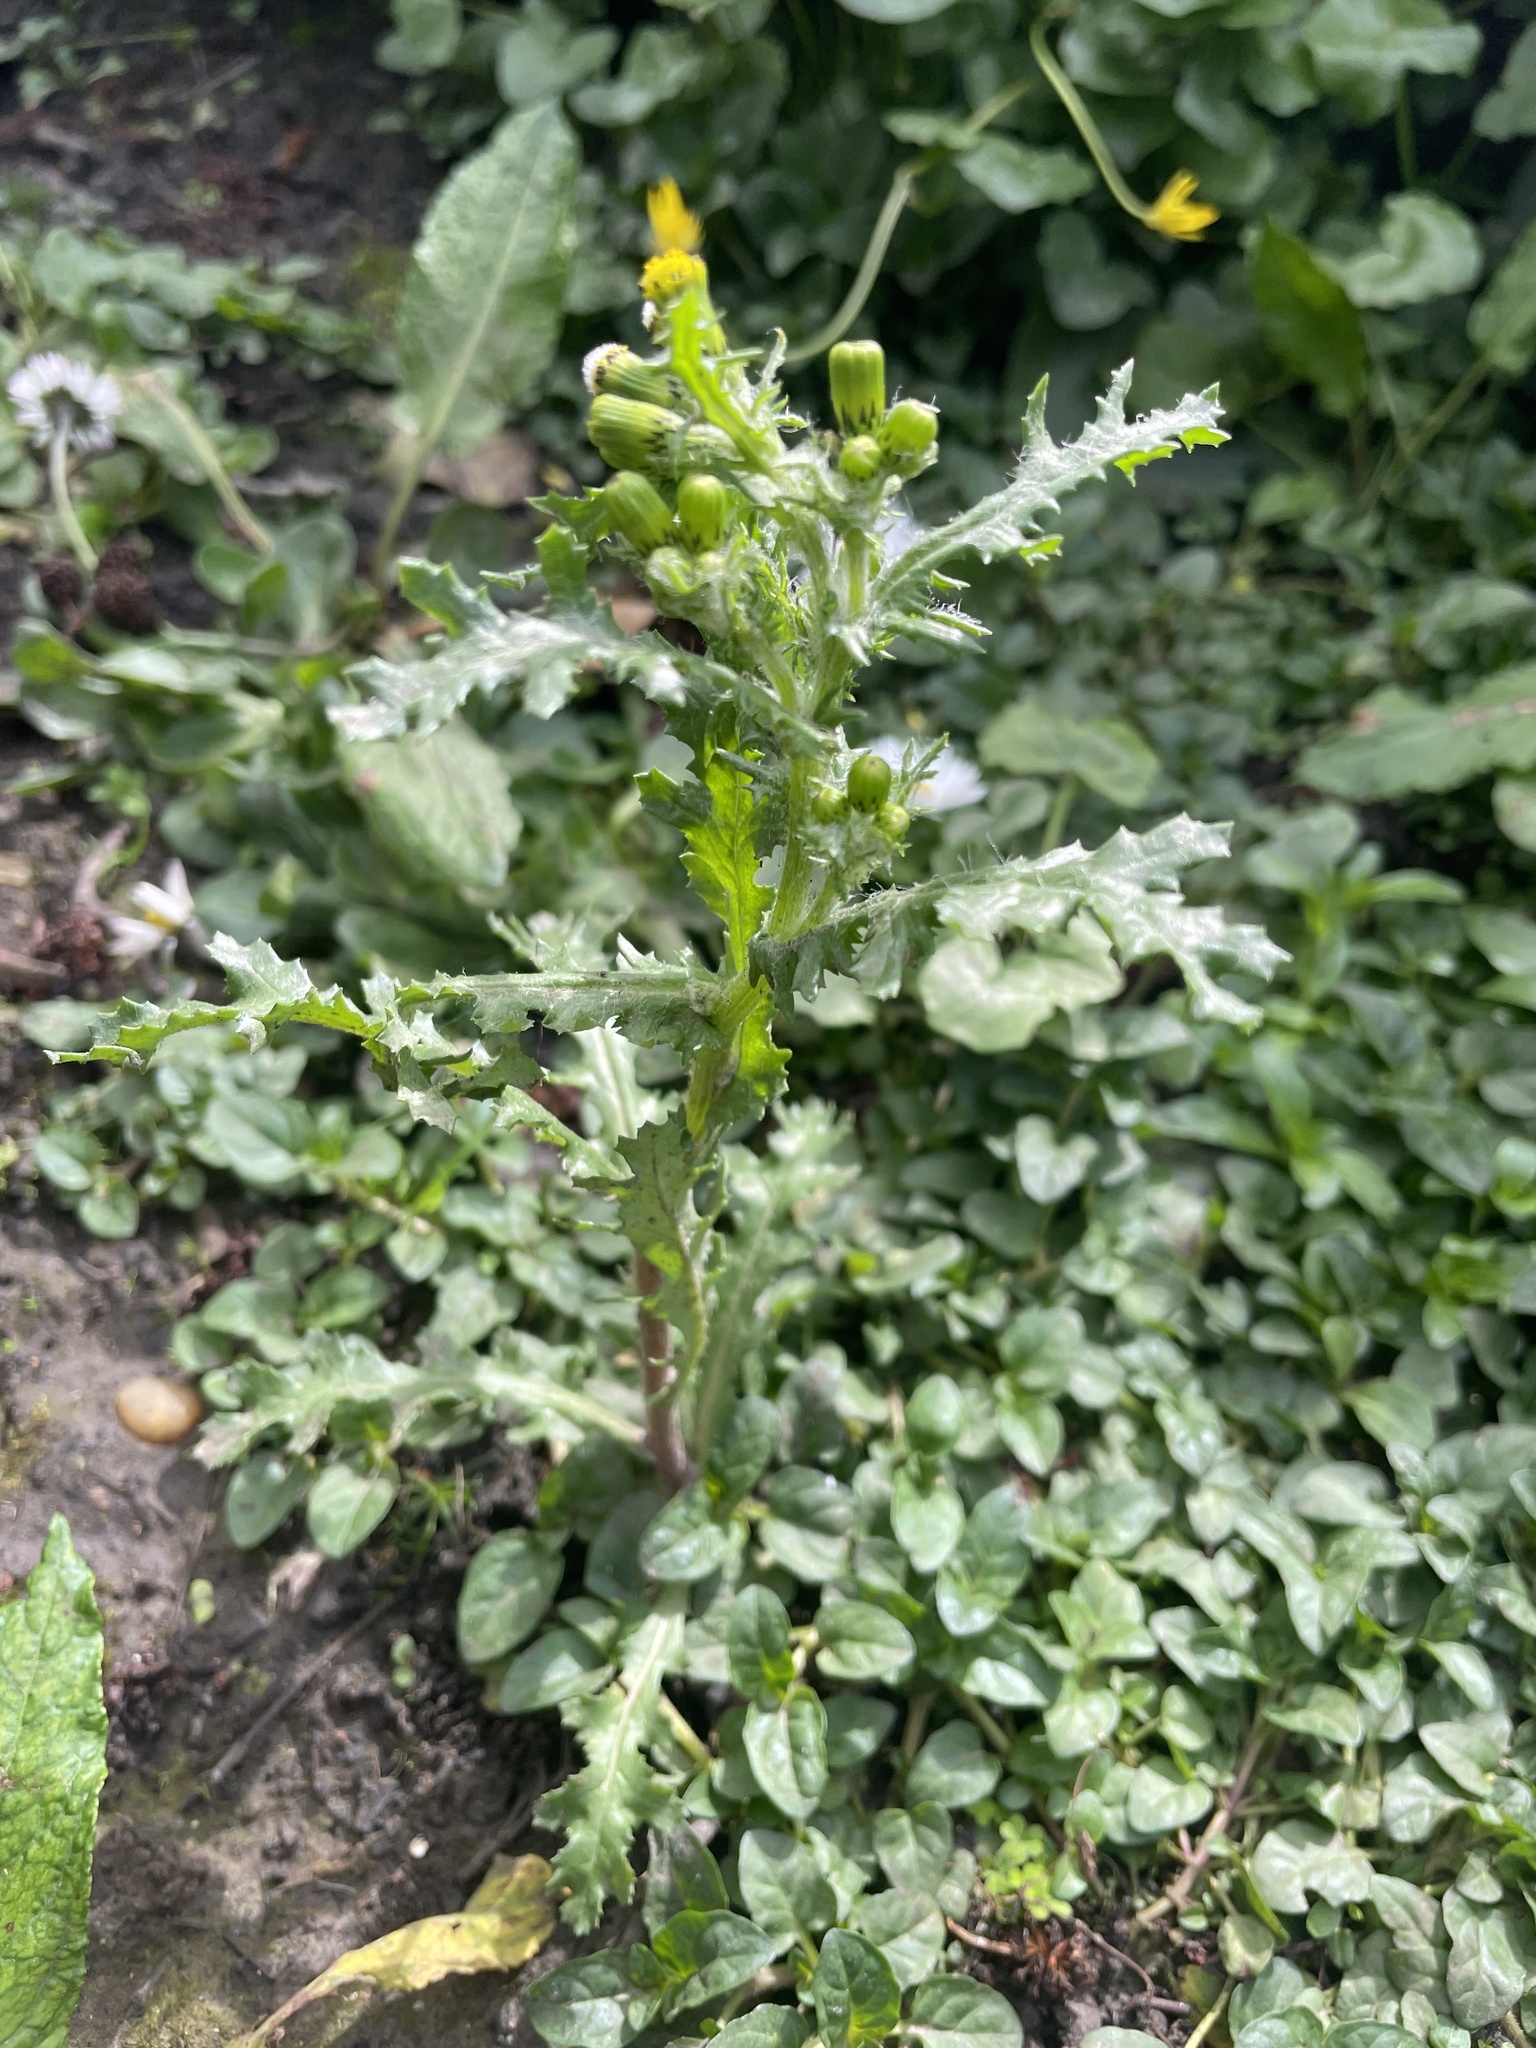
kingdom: Plantae
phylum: Tracheophyta
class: Magnoliopsida
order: Asterales
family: Asteraceae
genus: Senecio
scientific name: Senecio vulgaris
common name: Old-man-in-the-spring
